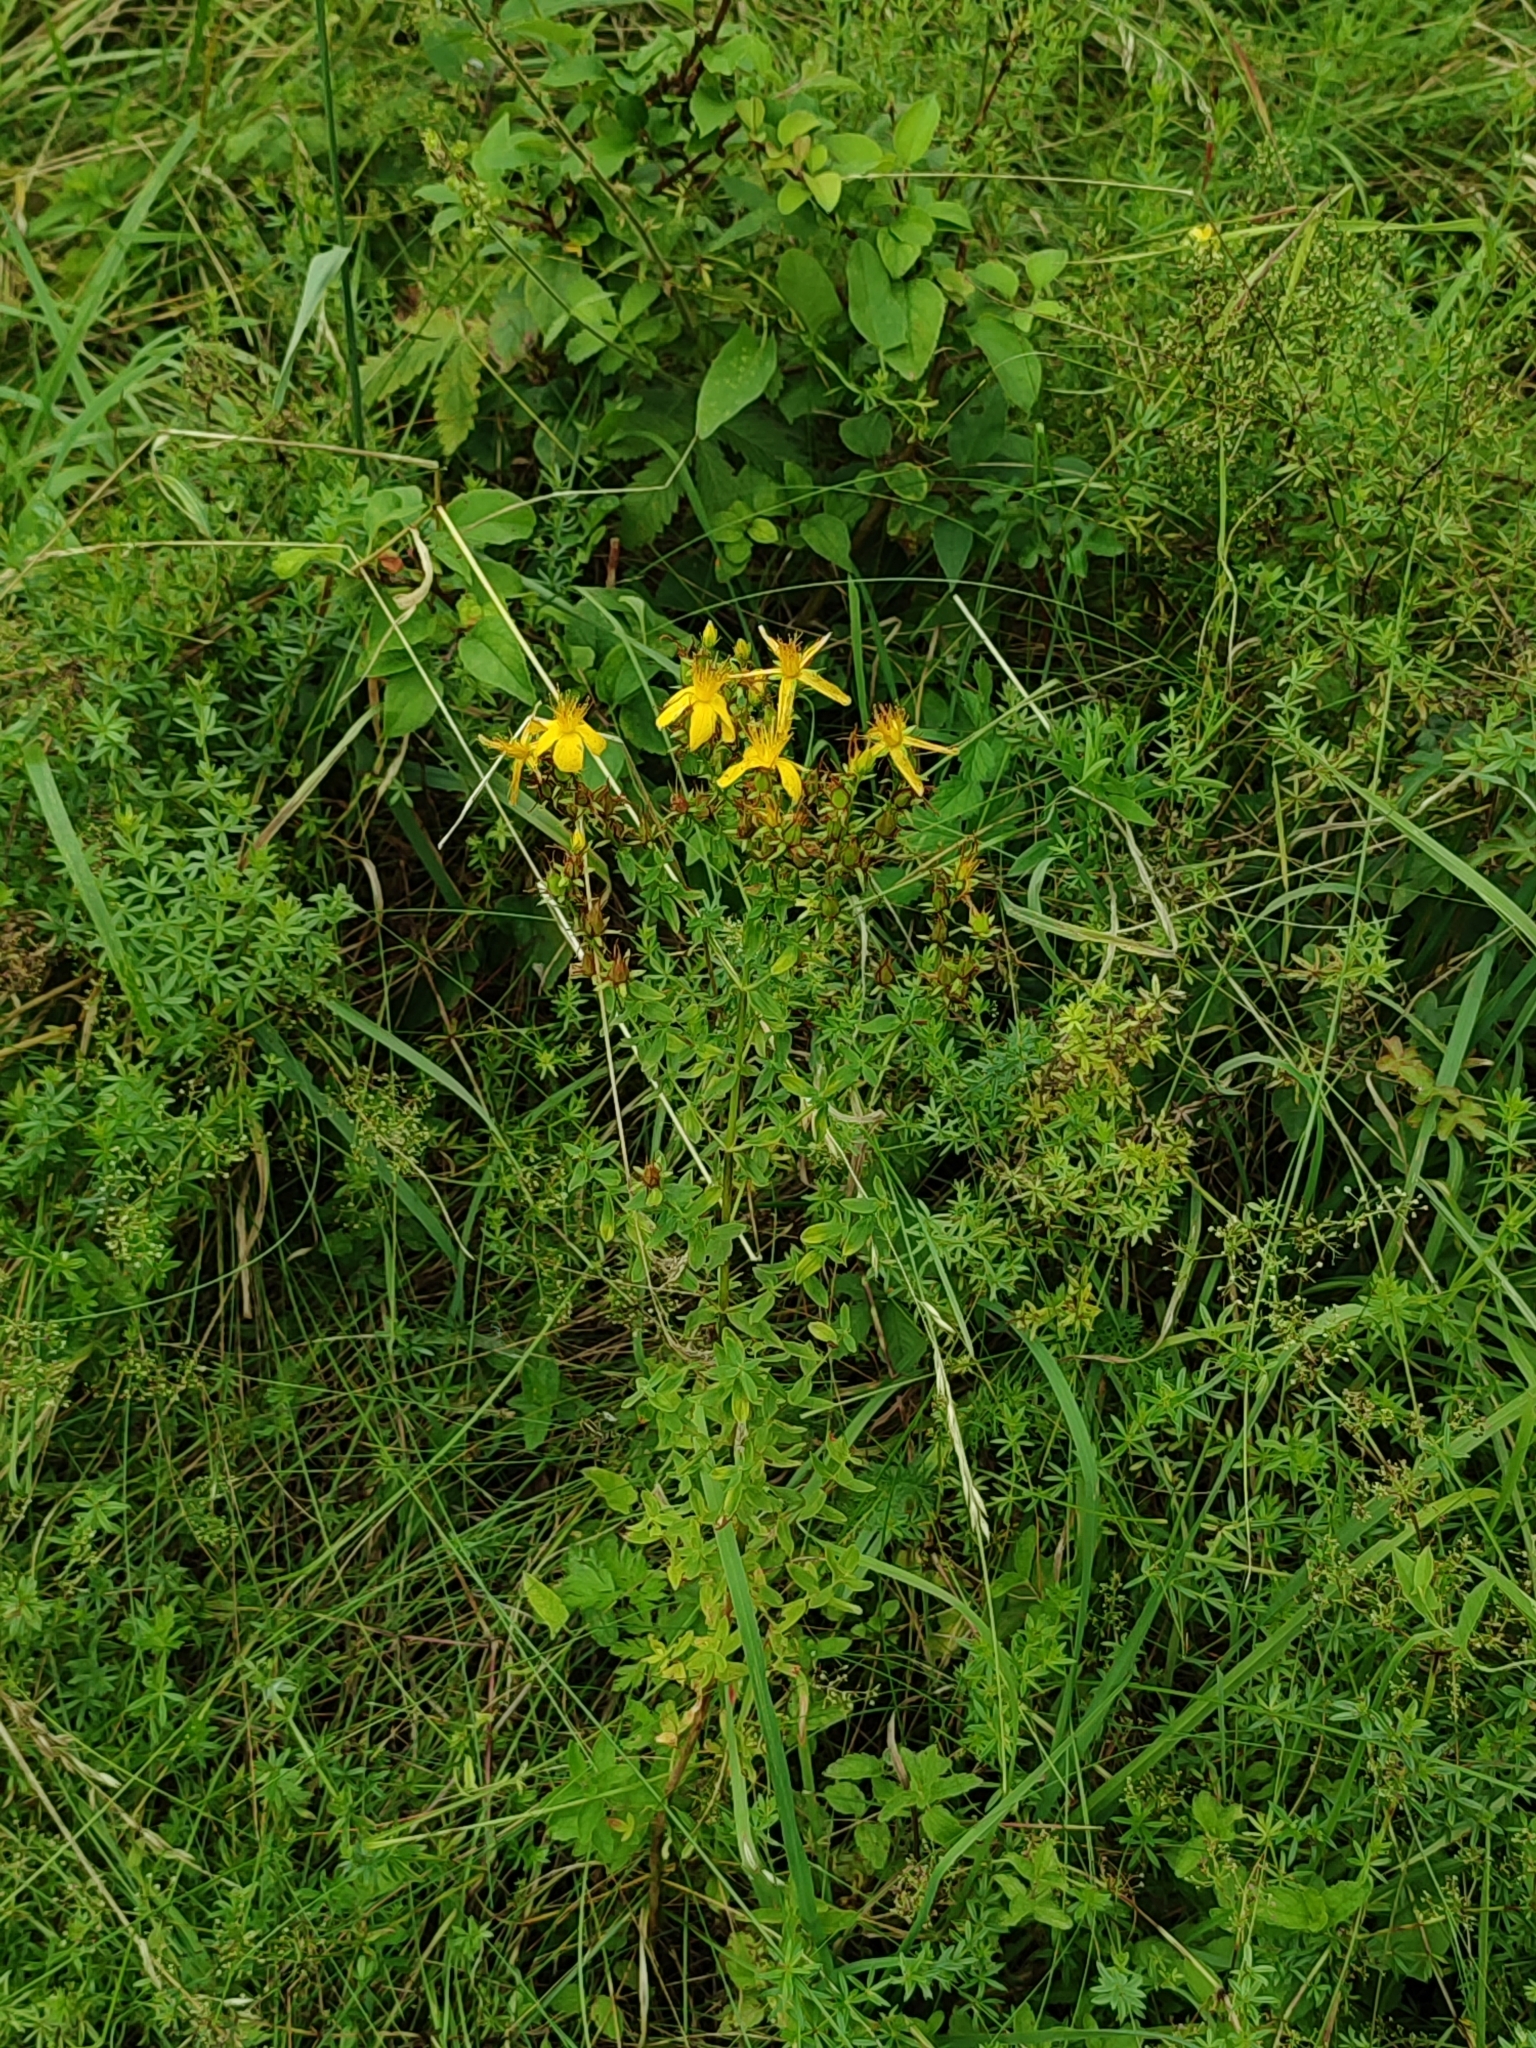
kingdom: Plantae
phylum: Tracheophyta
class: Magnoliopsida
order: Malpighiales
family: Hypericaceae
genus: Hypericum
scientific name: Hypericum perforatum
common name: Common st. johnswort
